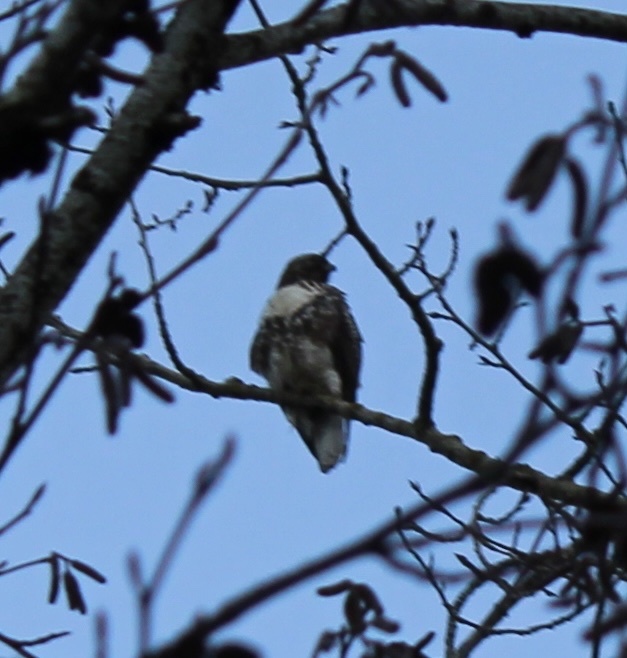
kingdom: Animalia
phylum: Chordata
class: Aves
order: Accipitriformes
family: Accipitridae
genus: Buteo
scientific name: Buteo jamaicensis
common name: Red-tailed hawk
